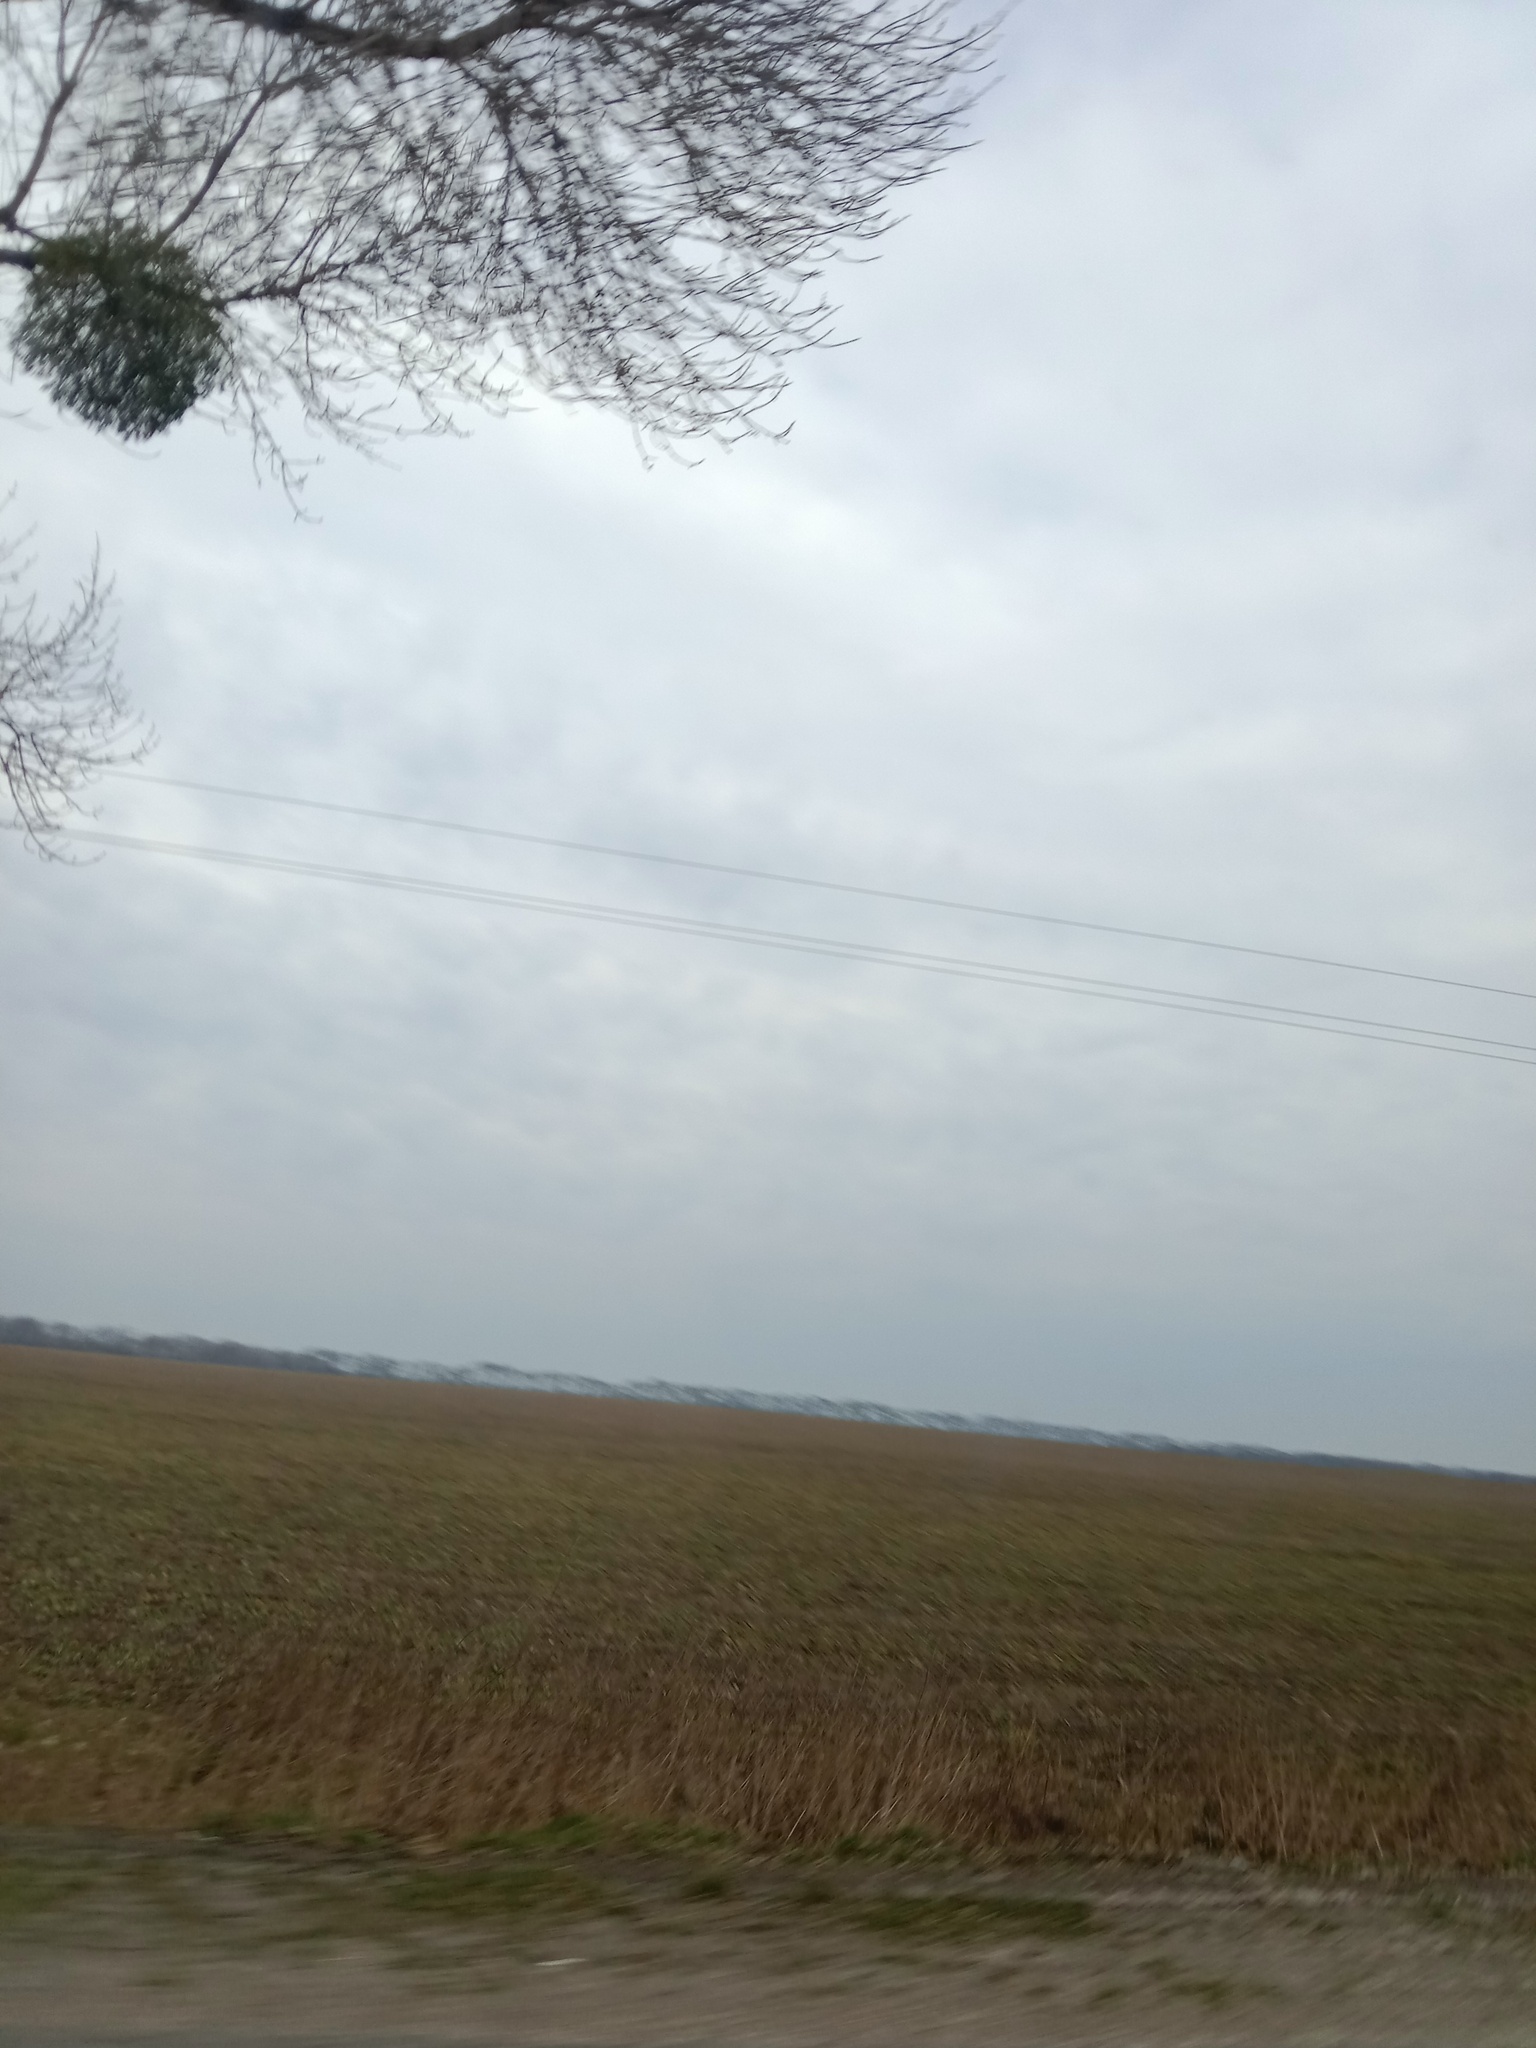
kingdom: Plantae
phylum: Tracheophyta
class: Magnoliopsida
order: Santalales
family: Viscaceae
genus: Viscum
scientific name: Viscum album
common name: Mistletoe
